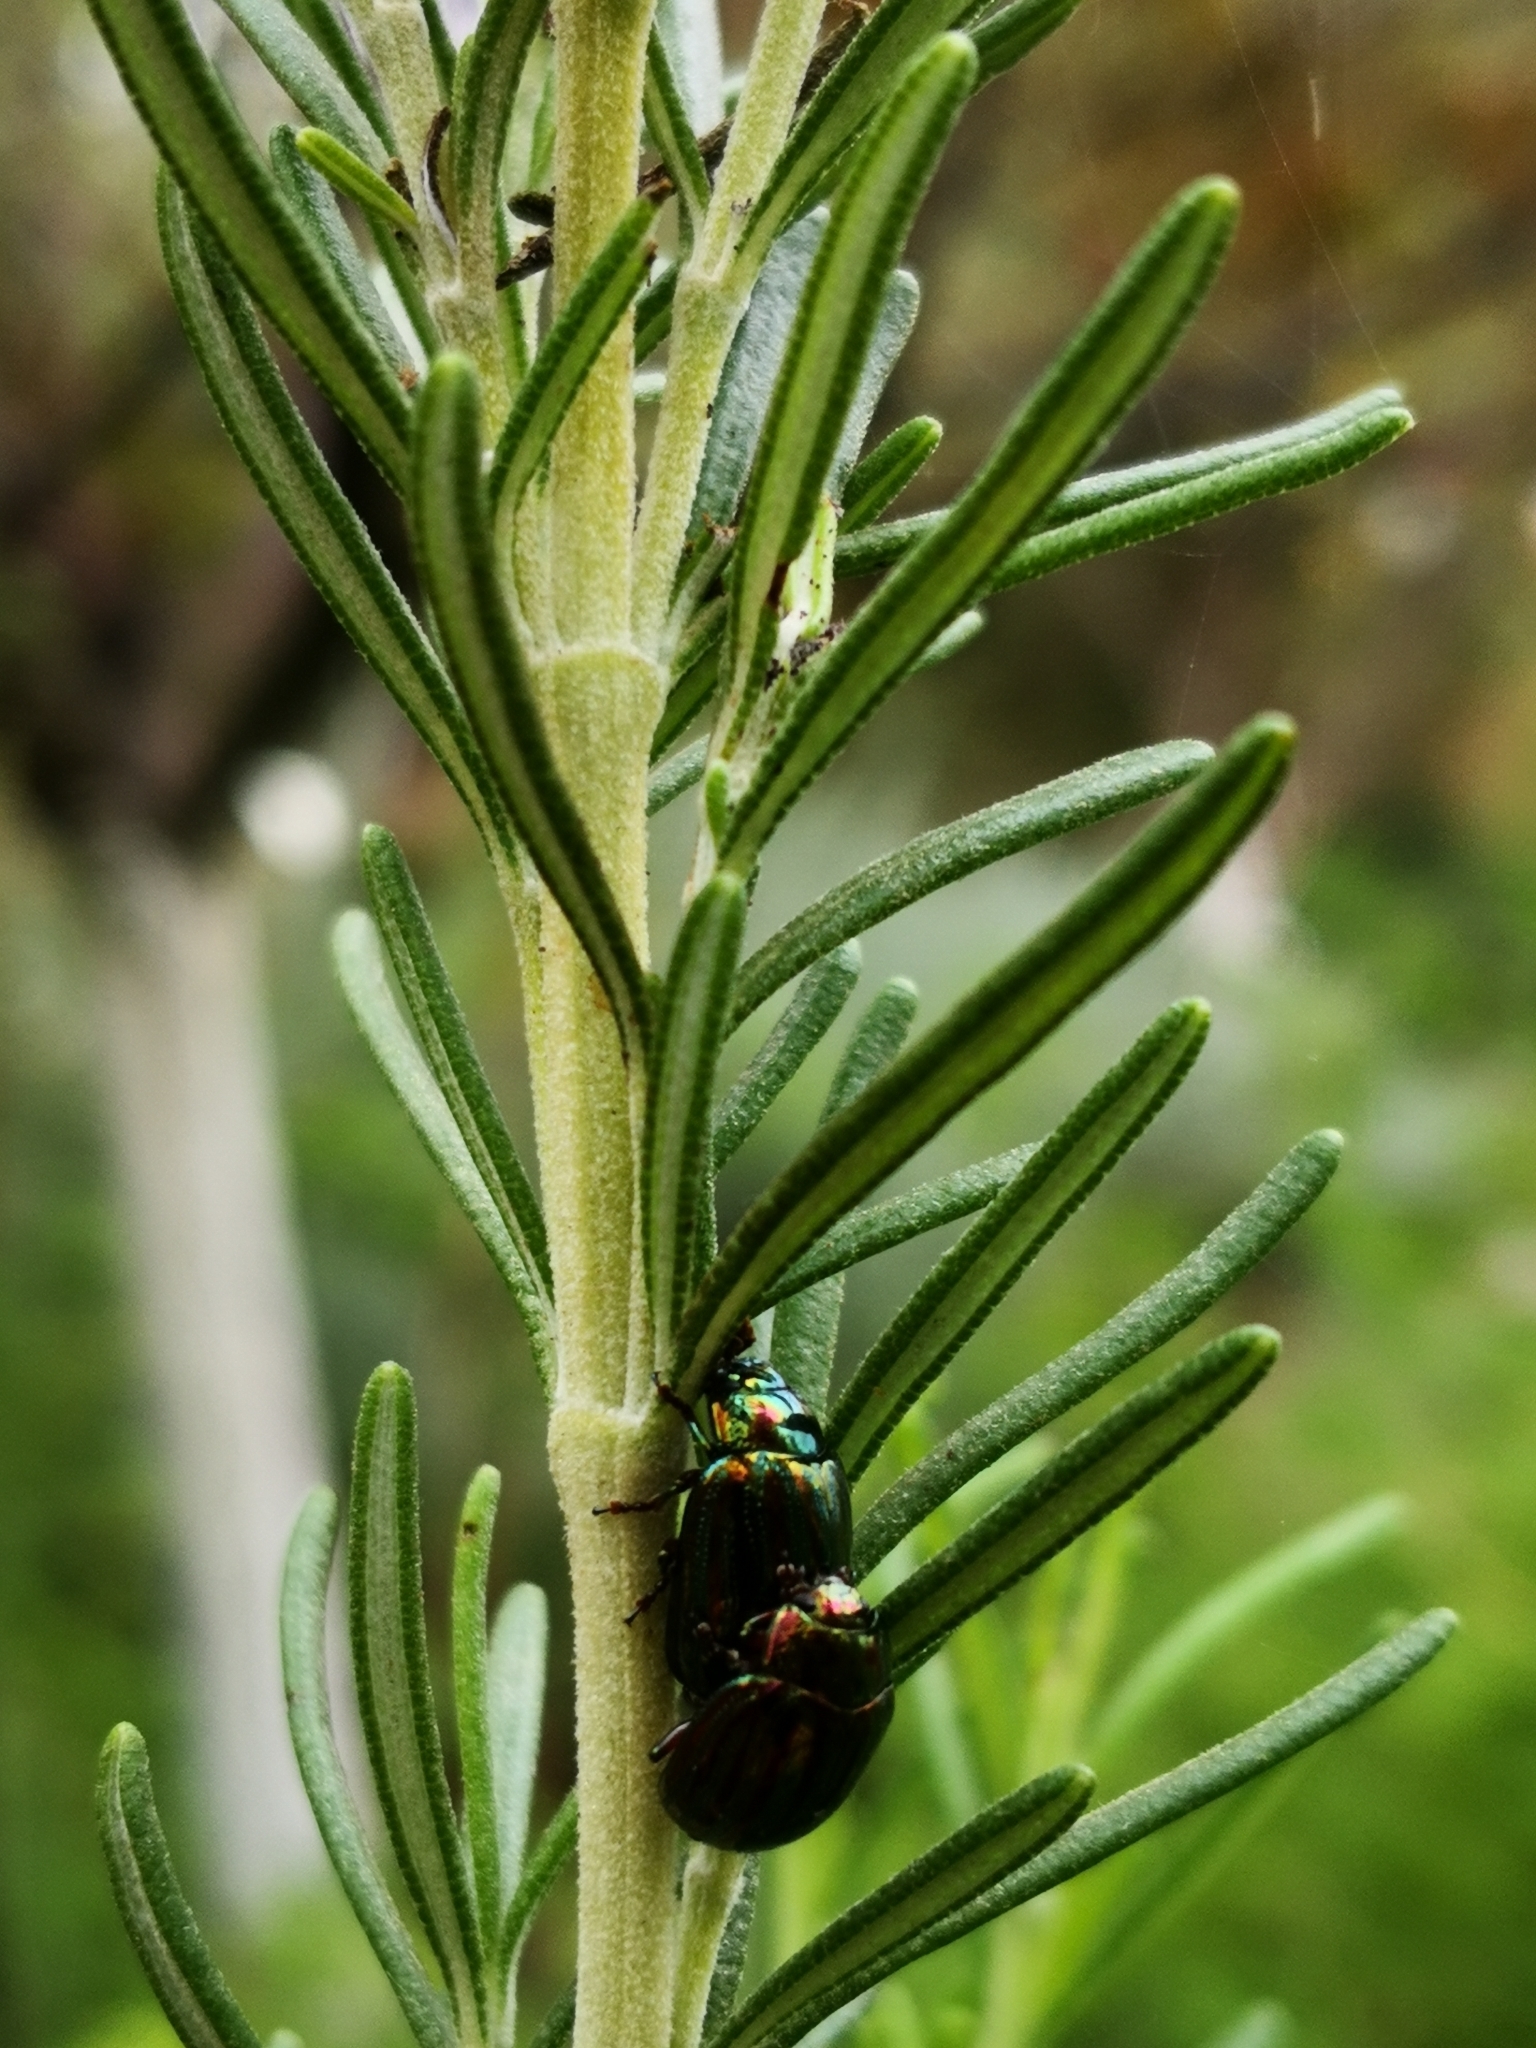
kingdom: Animalia
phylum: Arthropoda
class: Insecta
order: Coleoptera
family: Chrysomelidae
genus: Chrysolina
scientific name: Chrysolina americana
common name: Rosemary beetle
